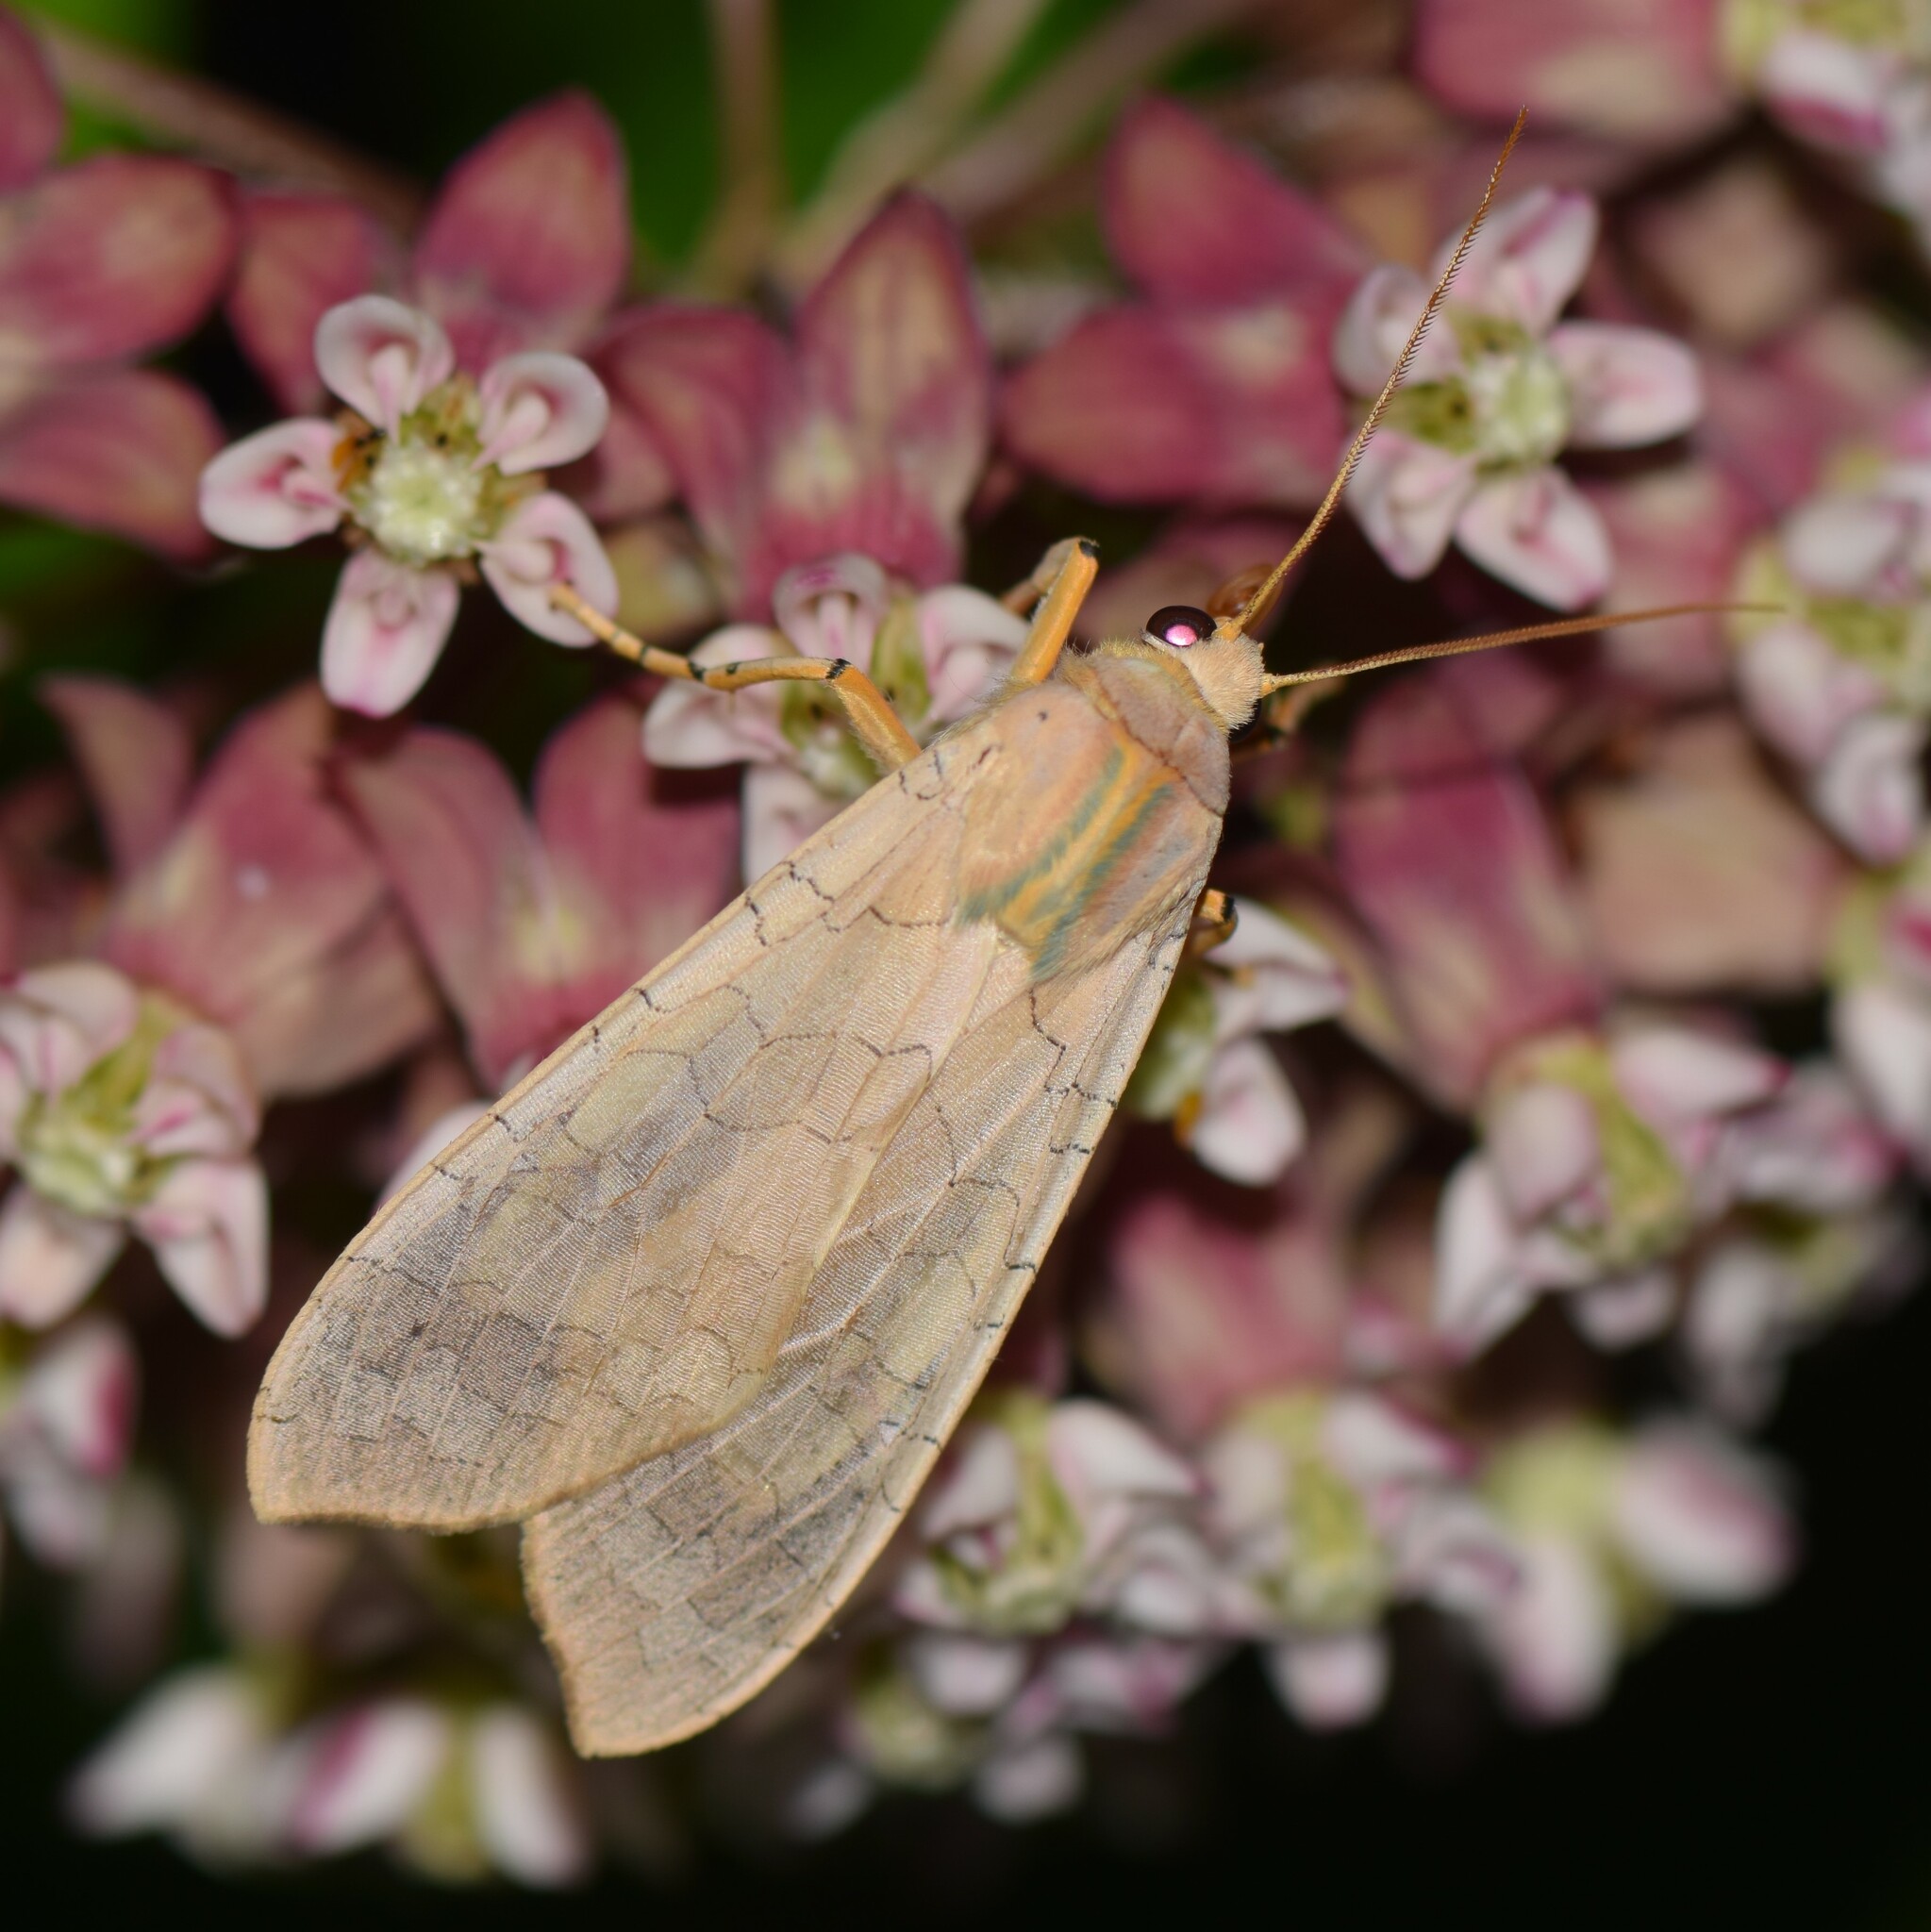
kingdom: Animalia
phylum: Arthropoda
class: Insecta
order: Lepidoptera
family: Erebidae
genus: Halysidota
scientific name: Halysidota
